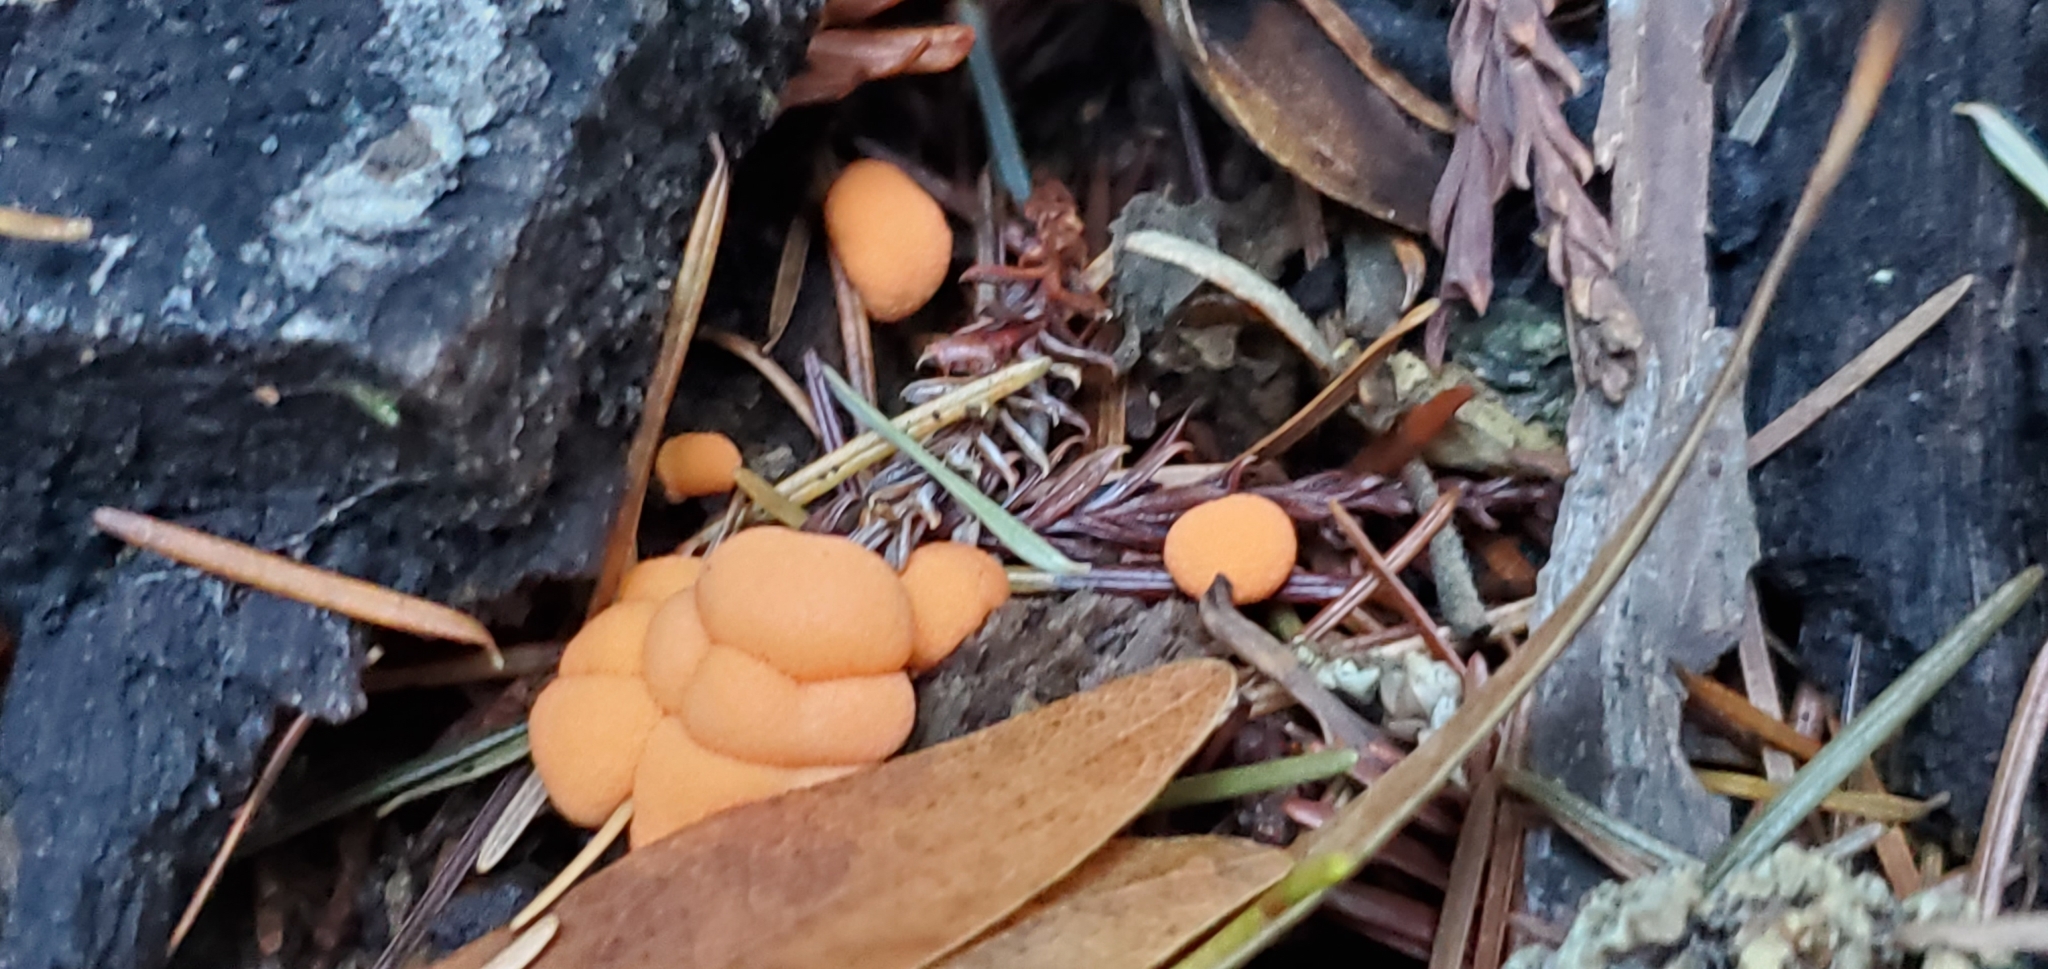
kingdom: Protozoa
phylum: Mycetozoa
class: Myxomycetes
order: Cribrariales
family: Tubiferaceae
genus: Lycogala
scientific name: Lycogala epidendrum
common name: Wolf's milk
